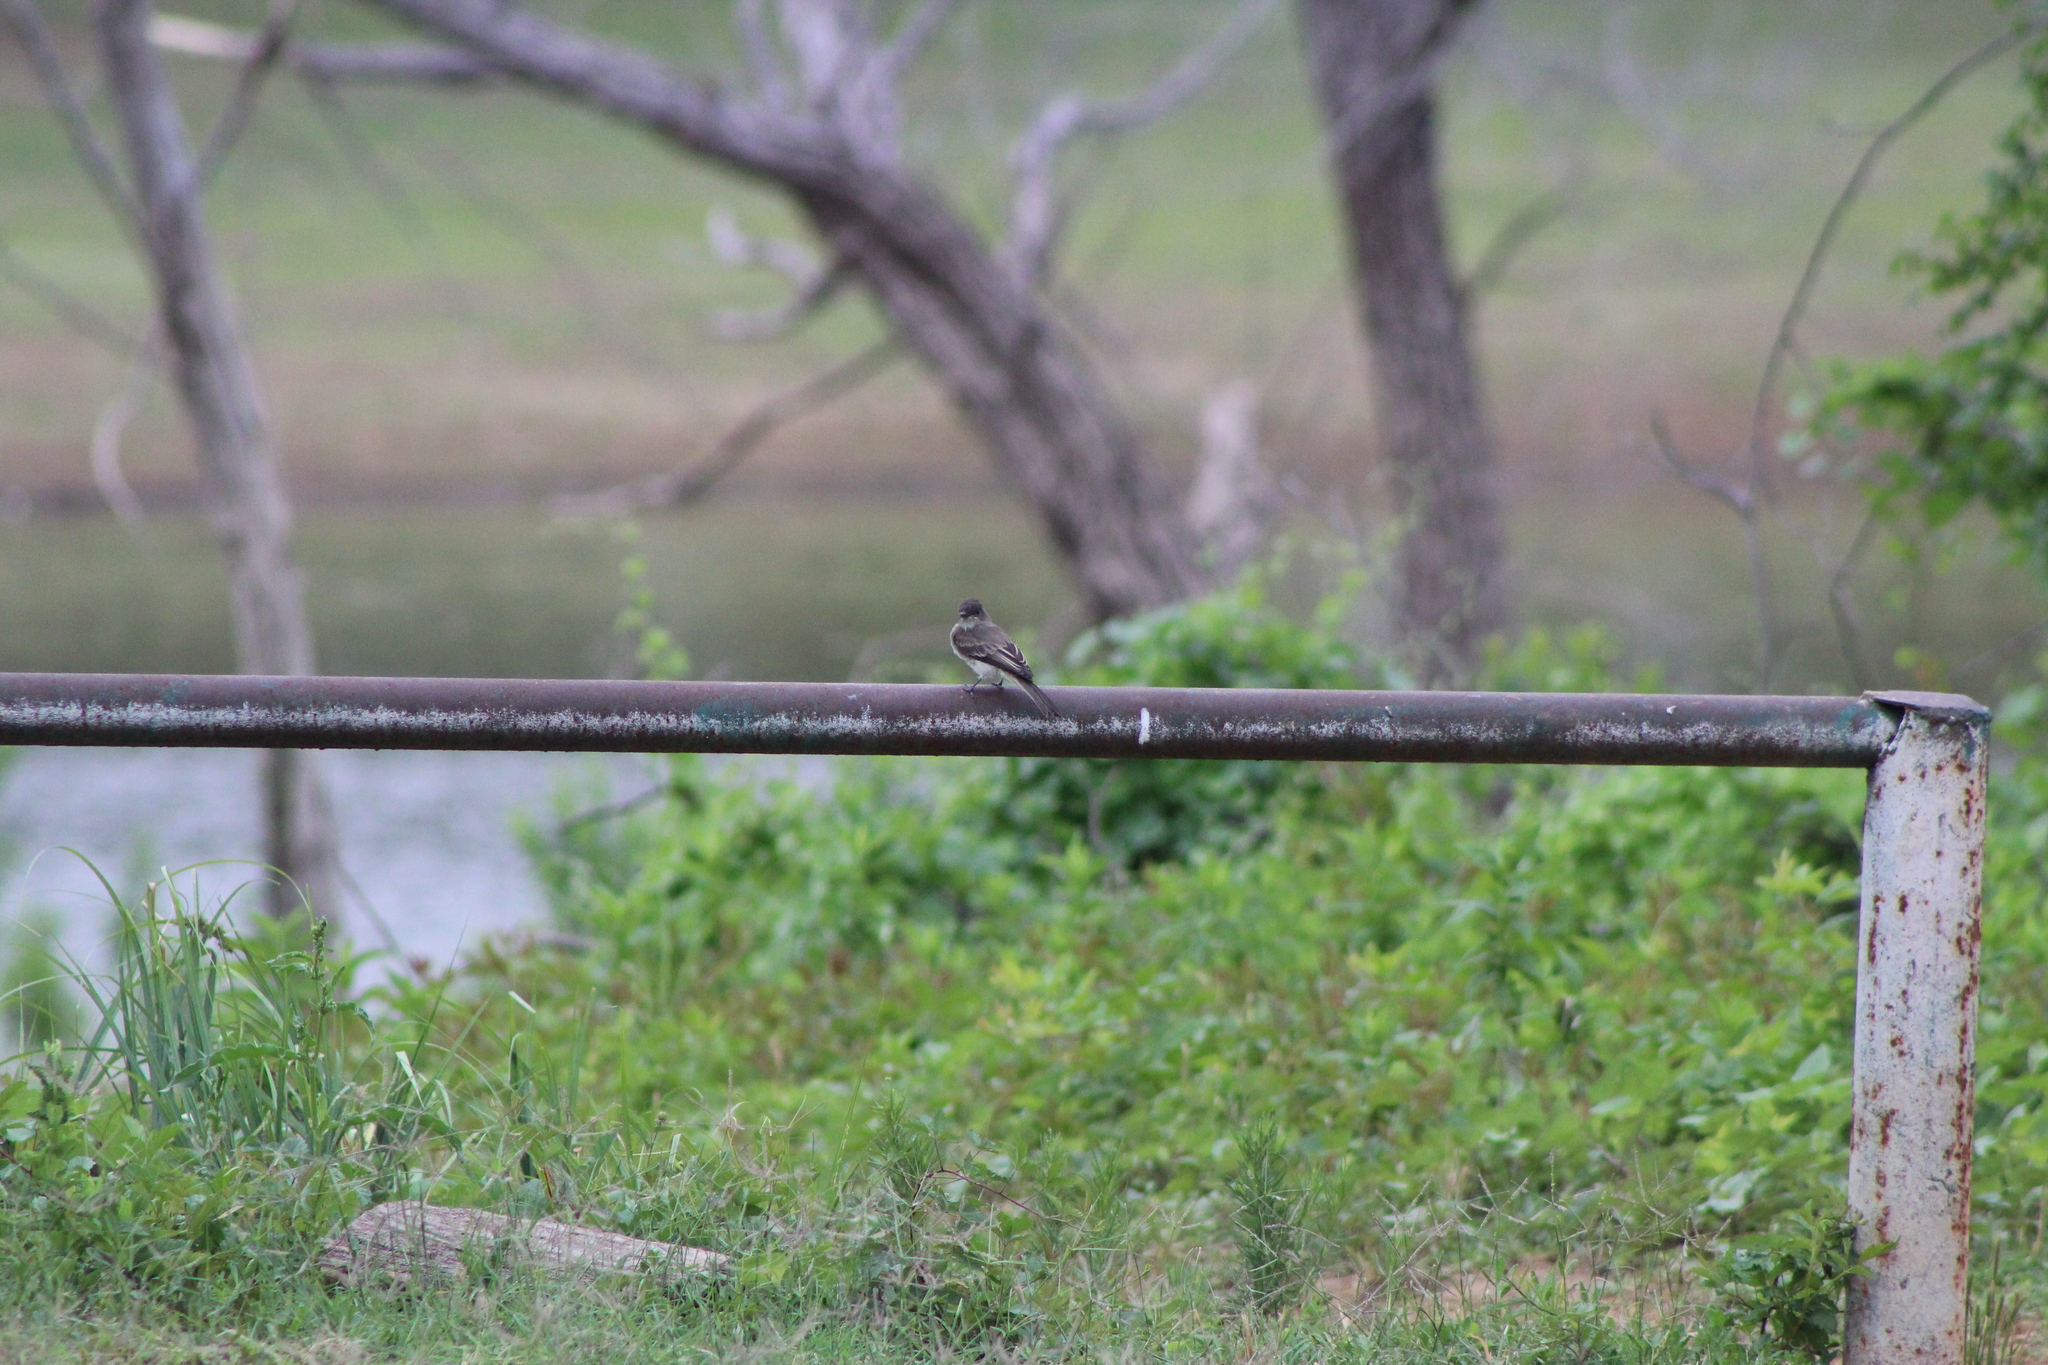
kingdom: Animalia
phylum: Chordata
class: Aves
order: Passeriformes
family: Tyrannidae
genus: Sayornis
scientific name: Sayornis phoebe
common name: Eastern phoebe
